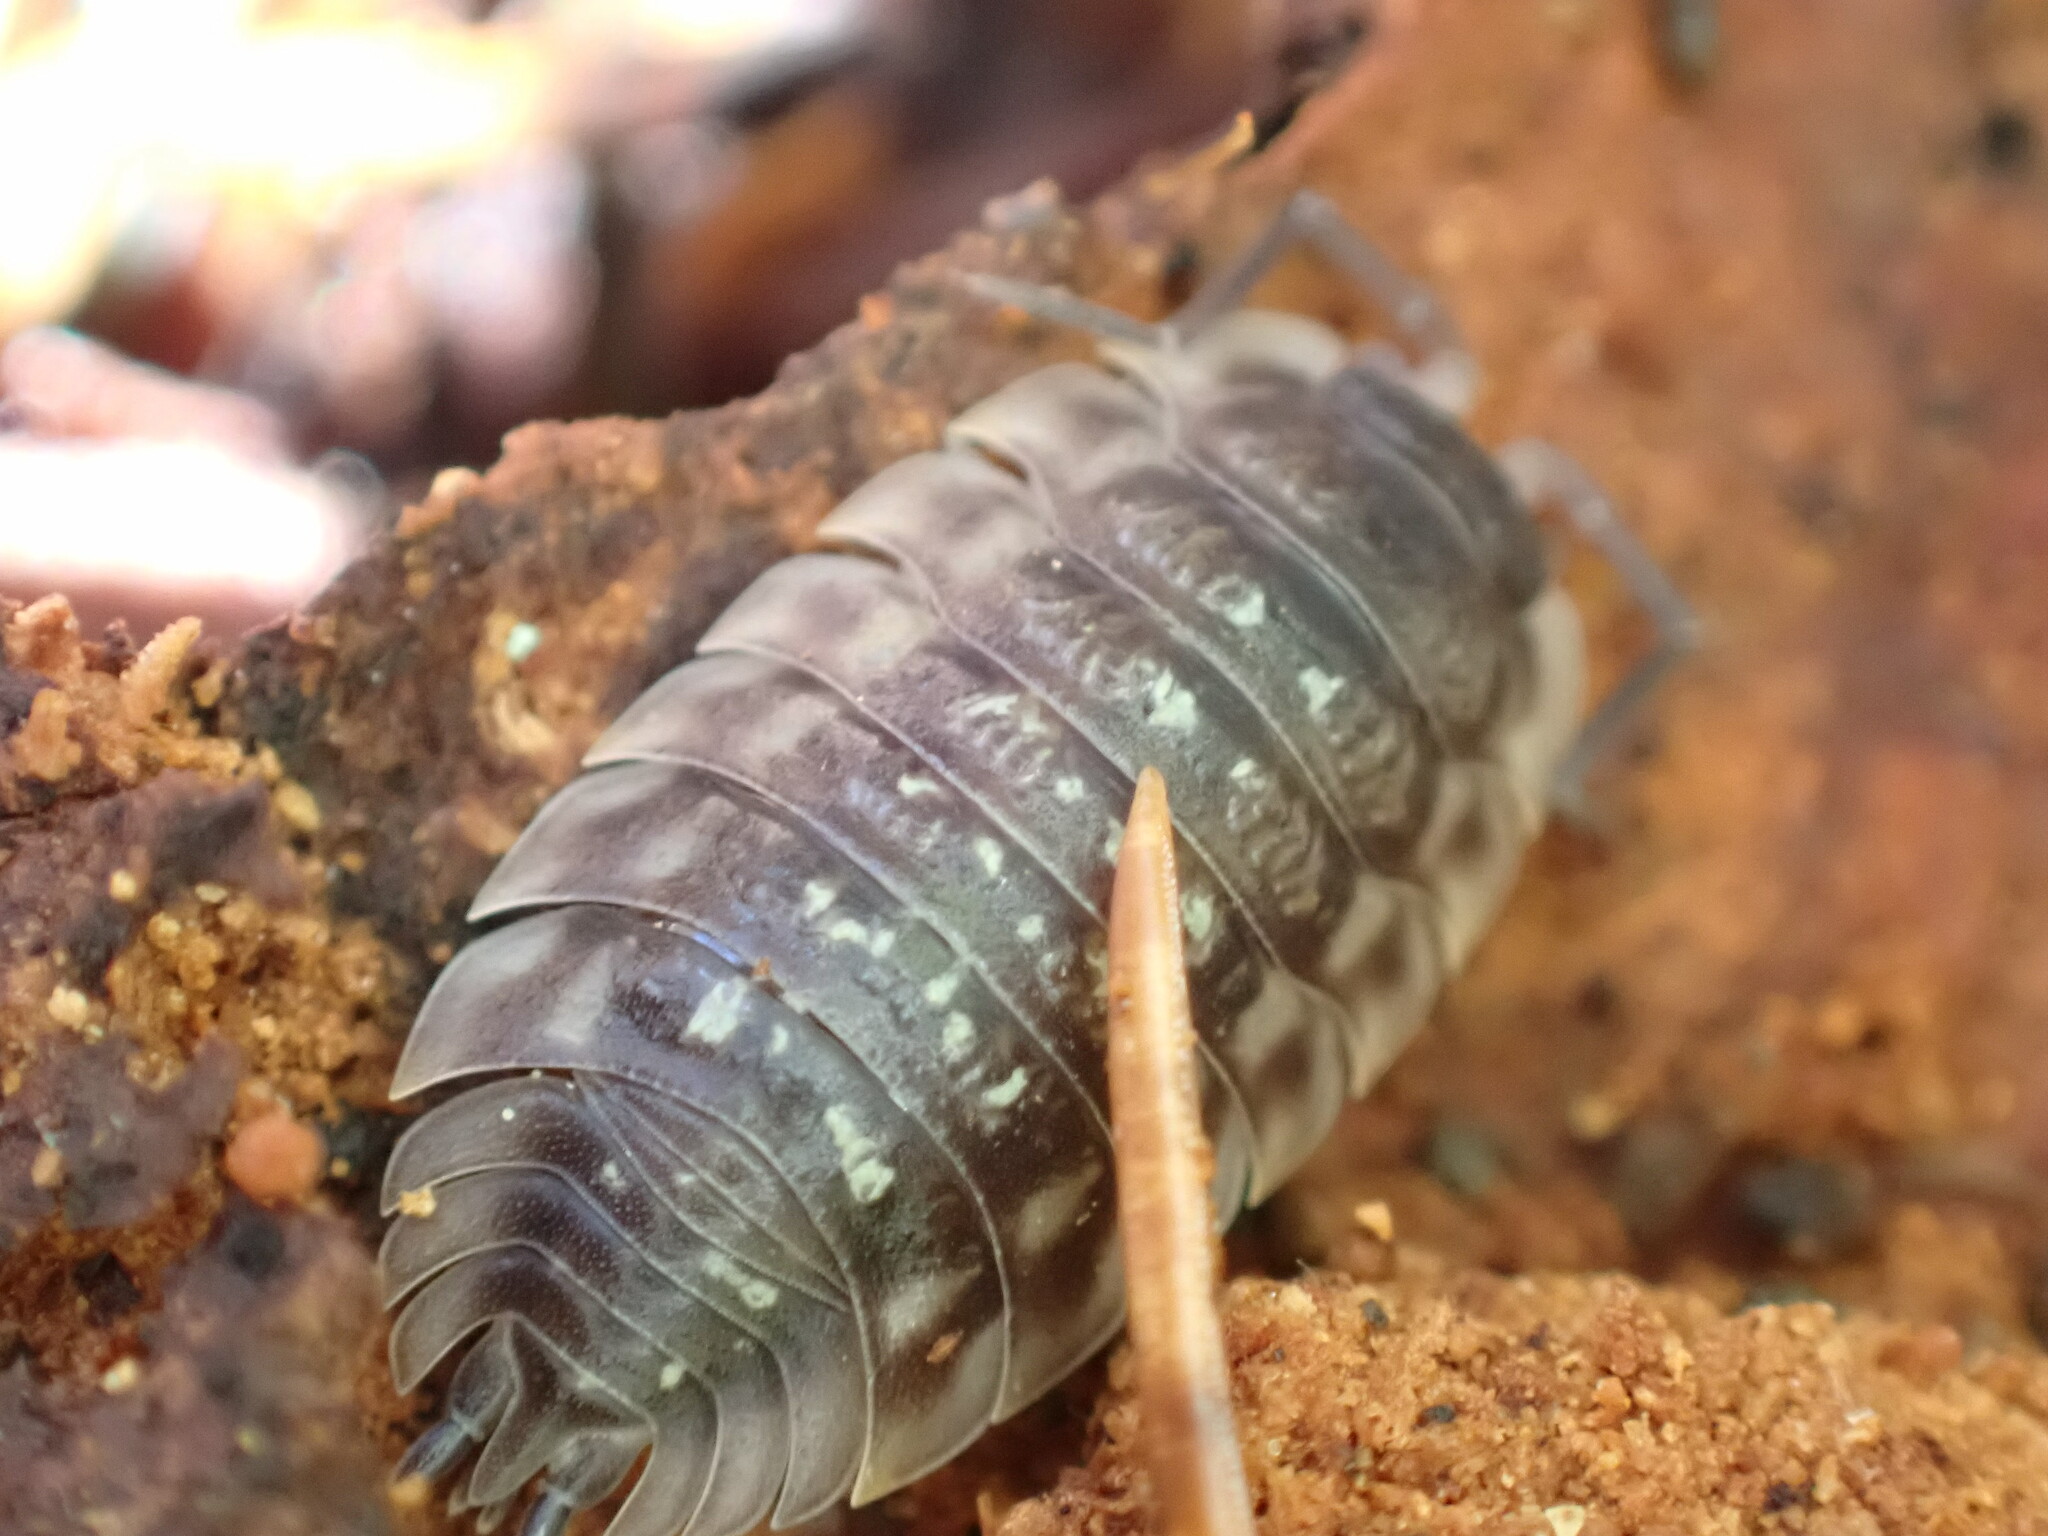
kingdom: Animalia
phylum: Arthropoda
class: Malacostraca
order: Isopoda
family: Oniscidae
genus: Oniscus
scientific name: Oniscus asellus
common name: Common shiny woodlouse
